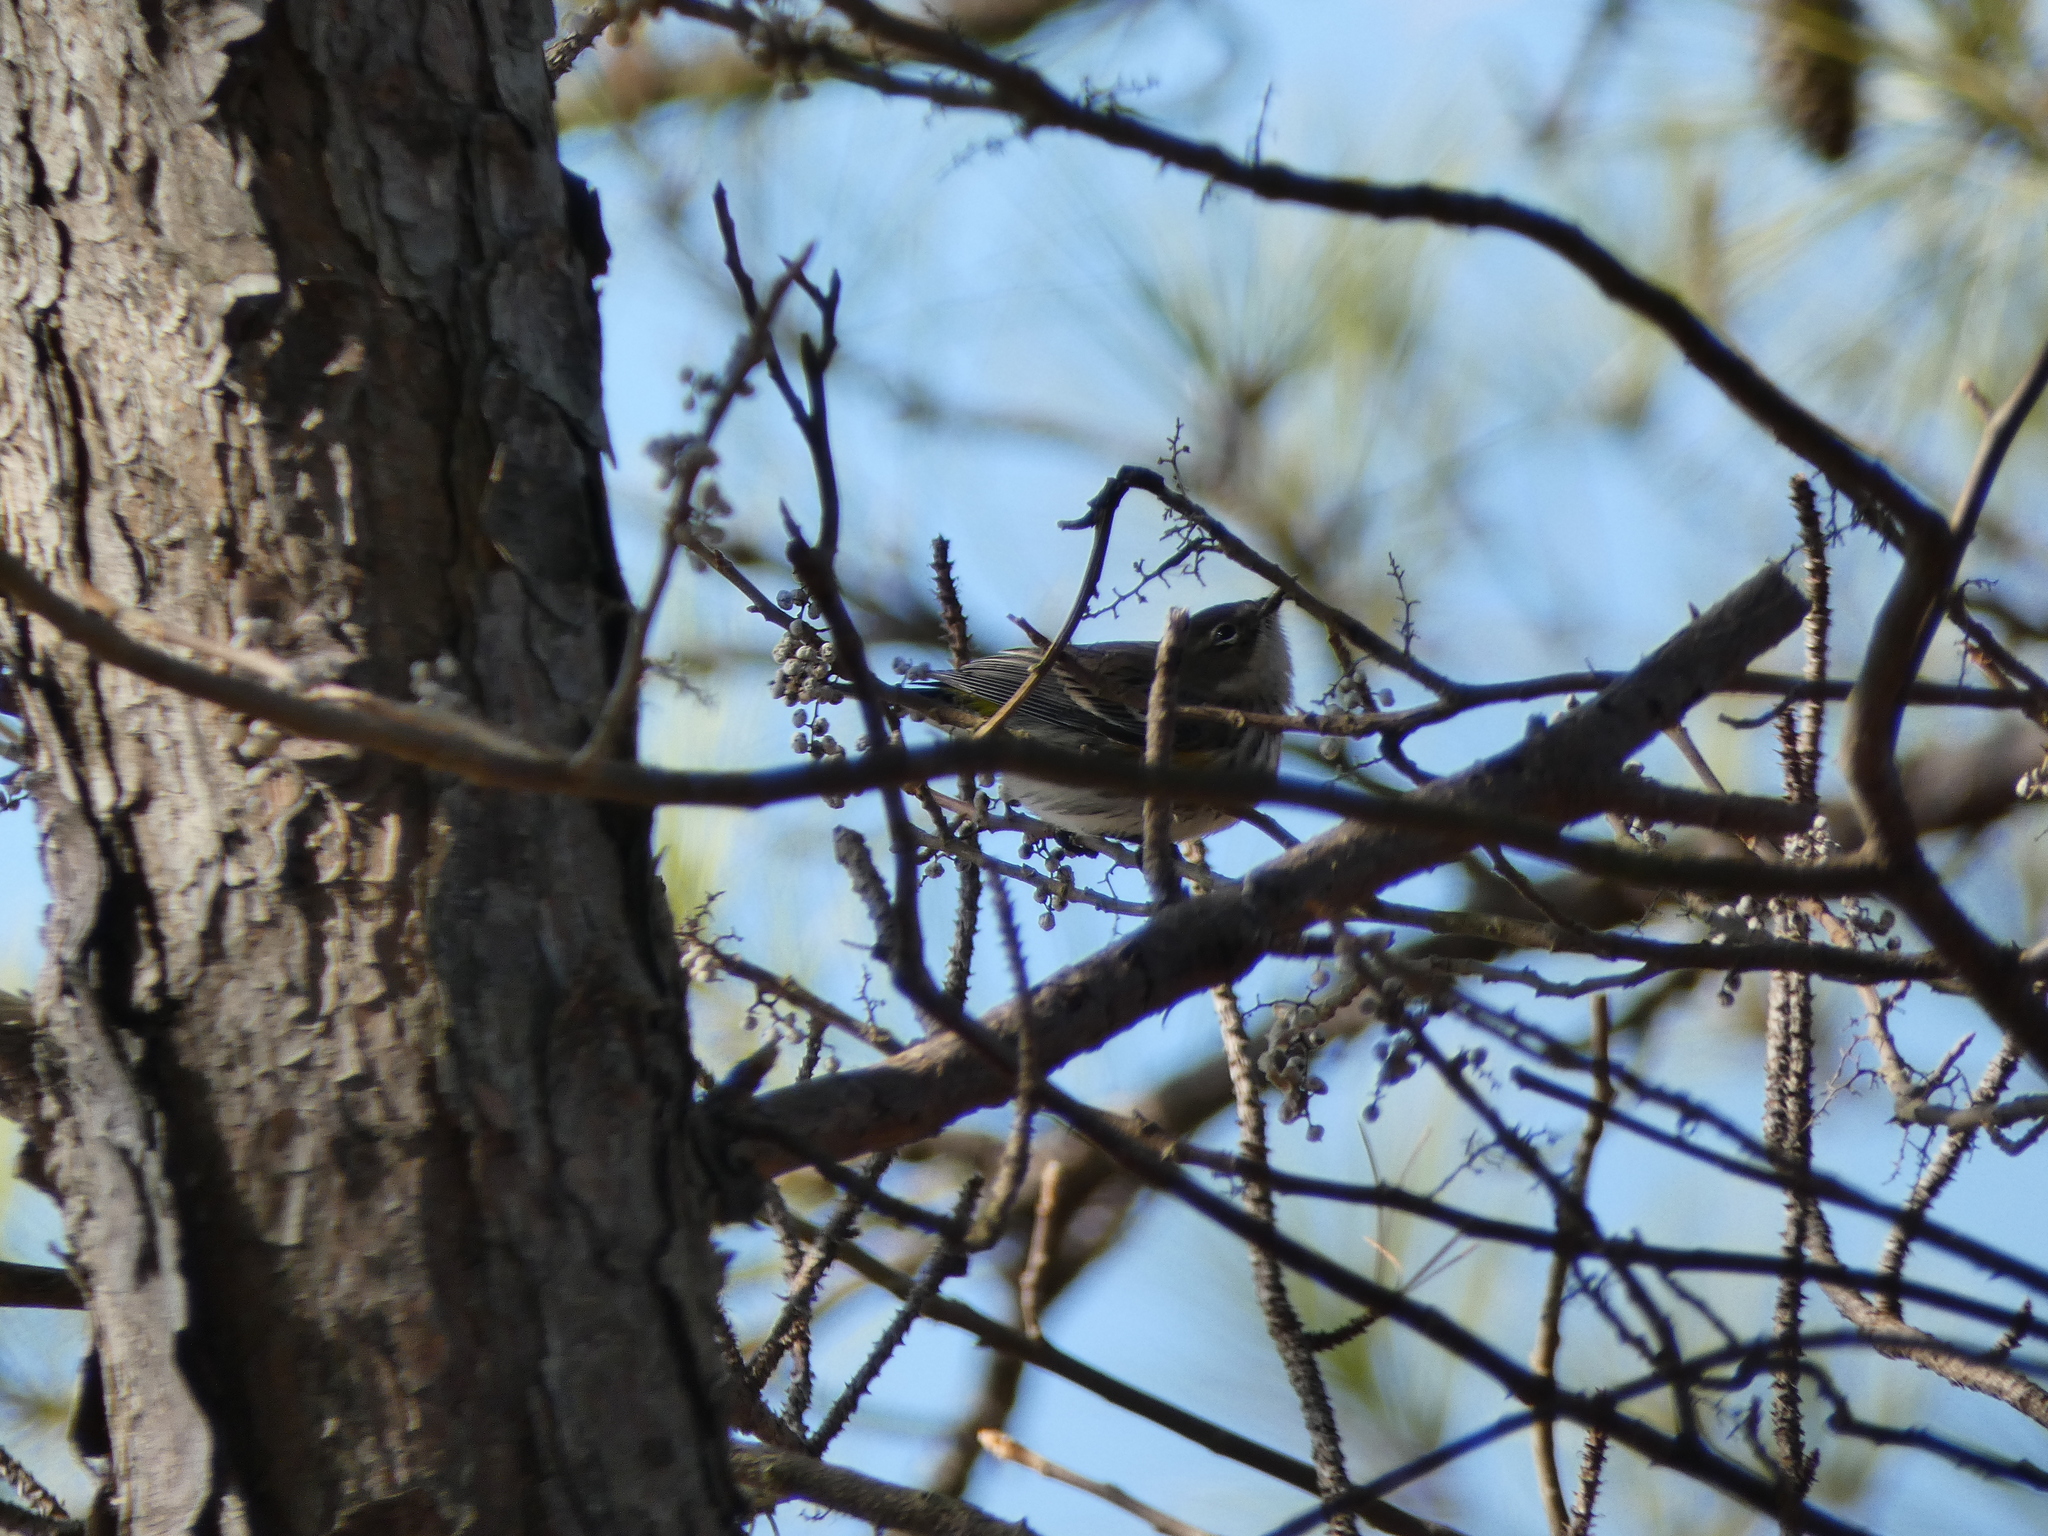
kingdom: Animalia
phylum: Chordata
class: Aves
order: Passeriformes
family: Parulidae
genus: Setophaga
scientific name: Setophaga coronata
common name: Myrtle warbler
